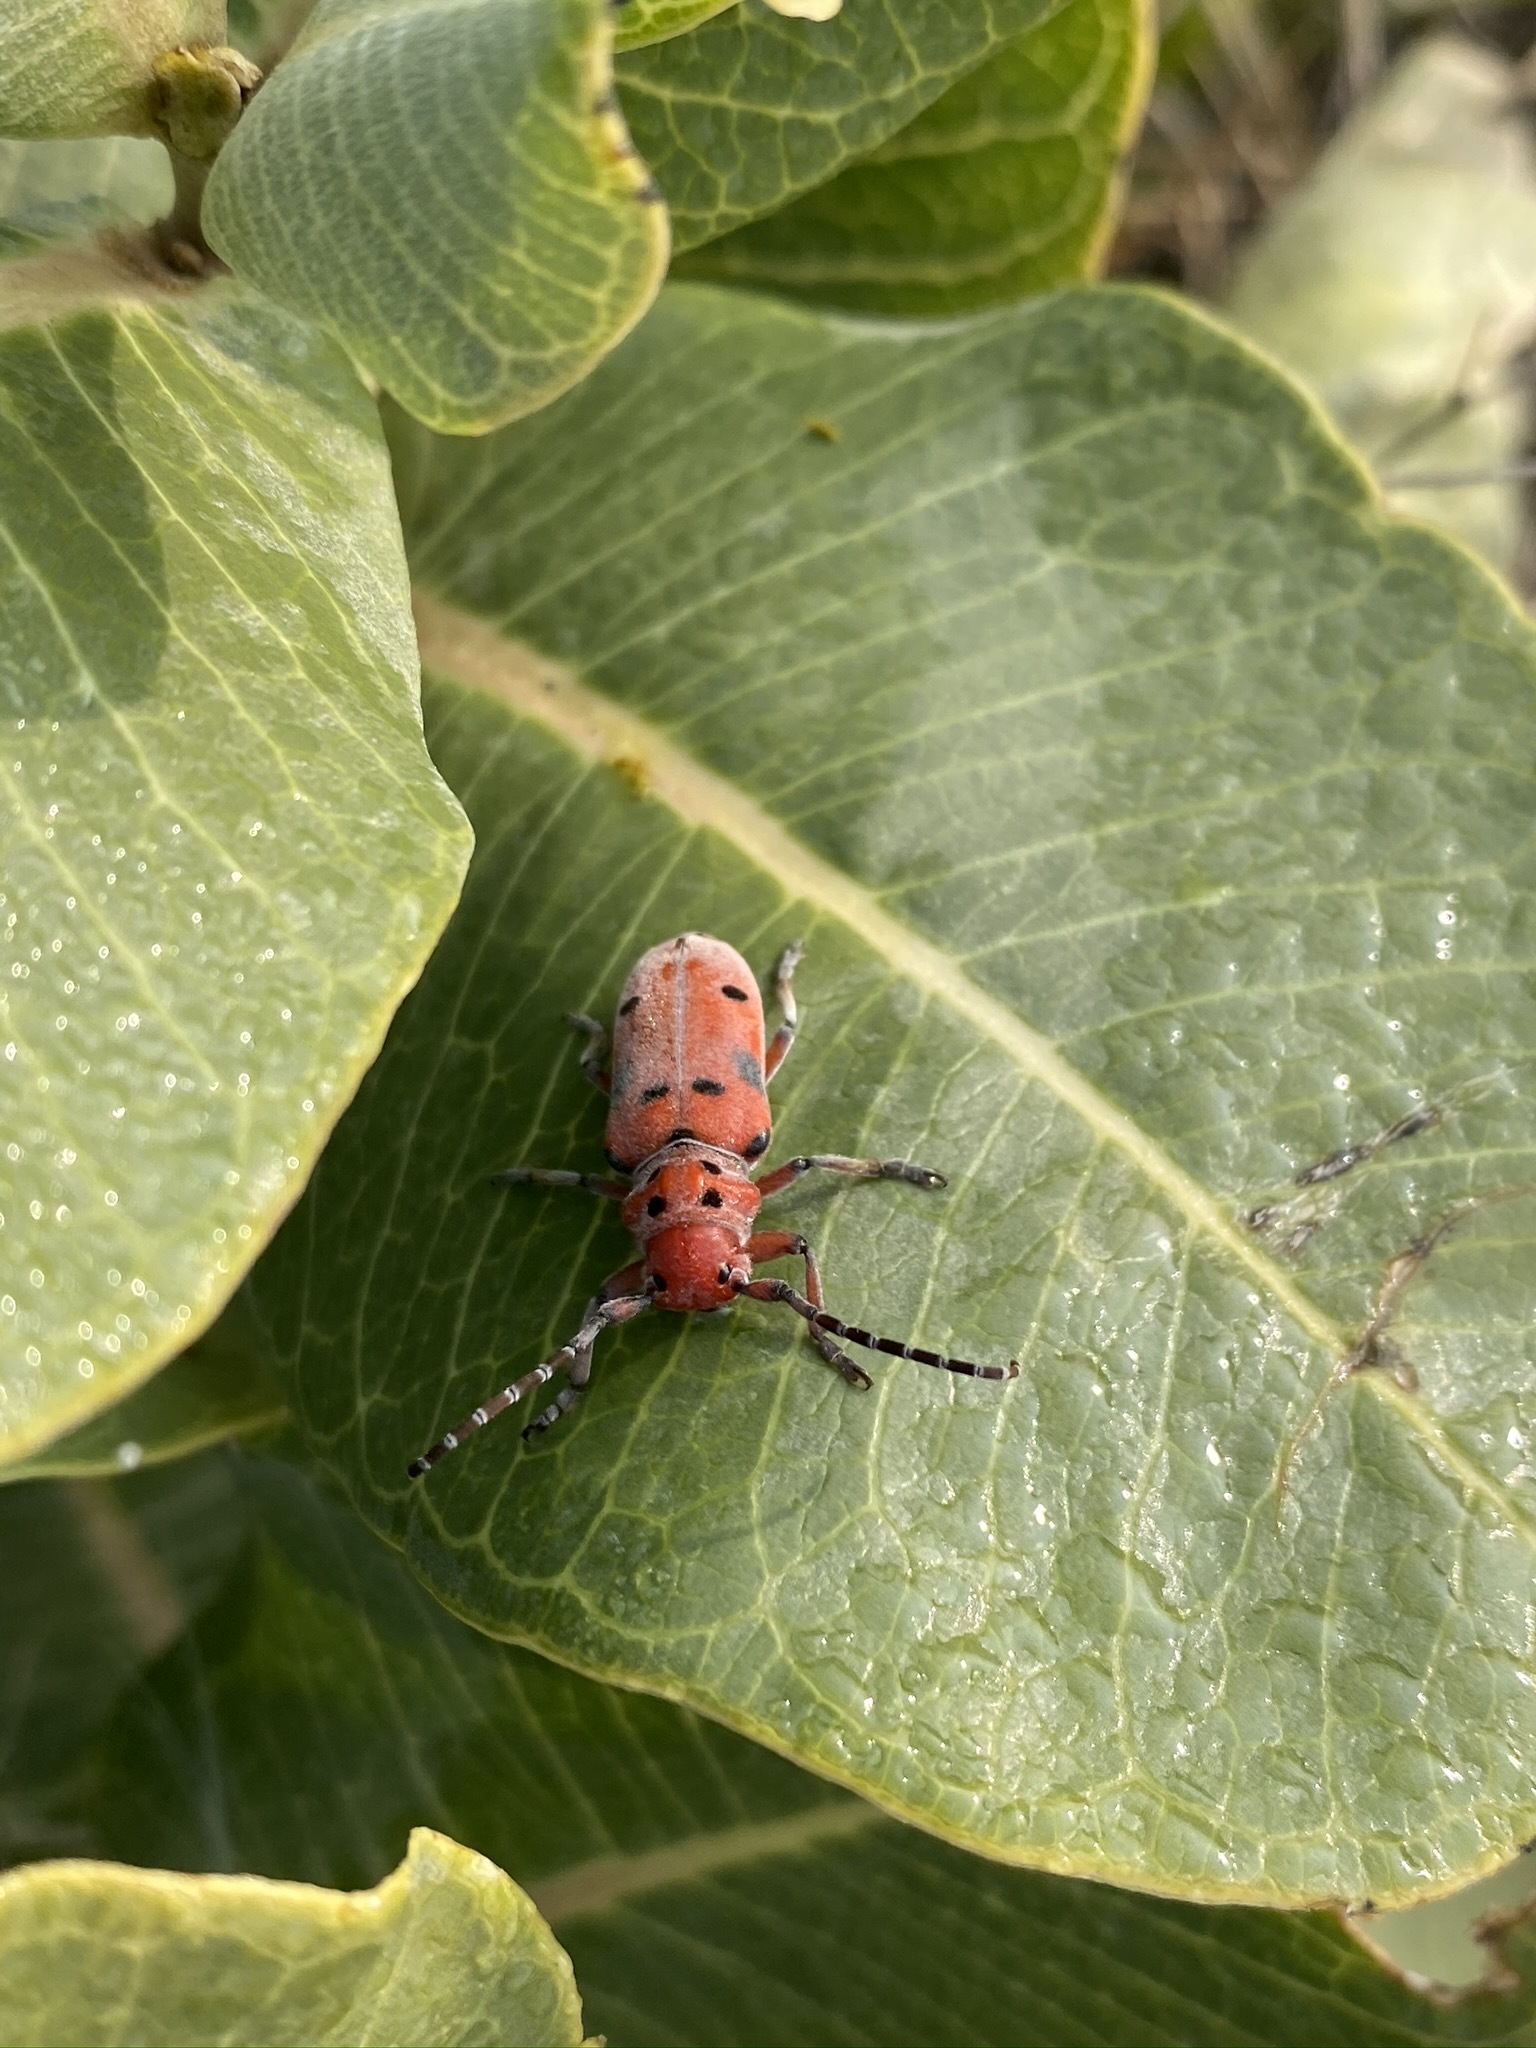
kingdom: Animalia
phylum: Arthropoda
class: Insecta
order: Coleoptera
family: Cerambycidae
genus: Tetraopes
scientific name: Tetraopes femoratus
